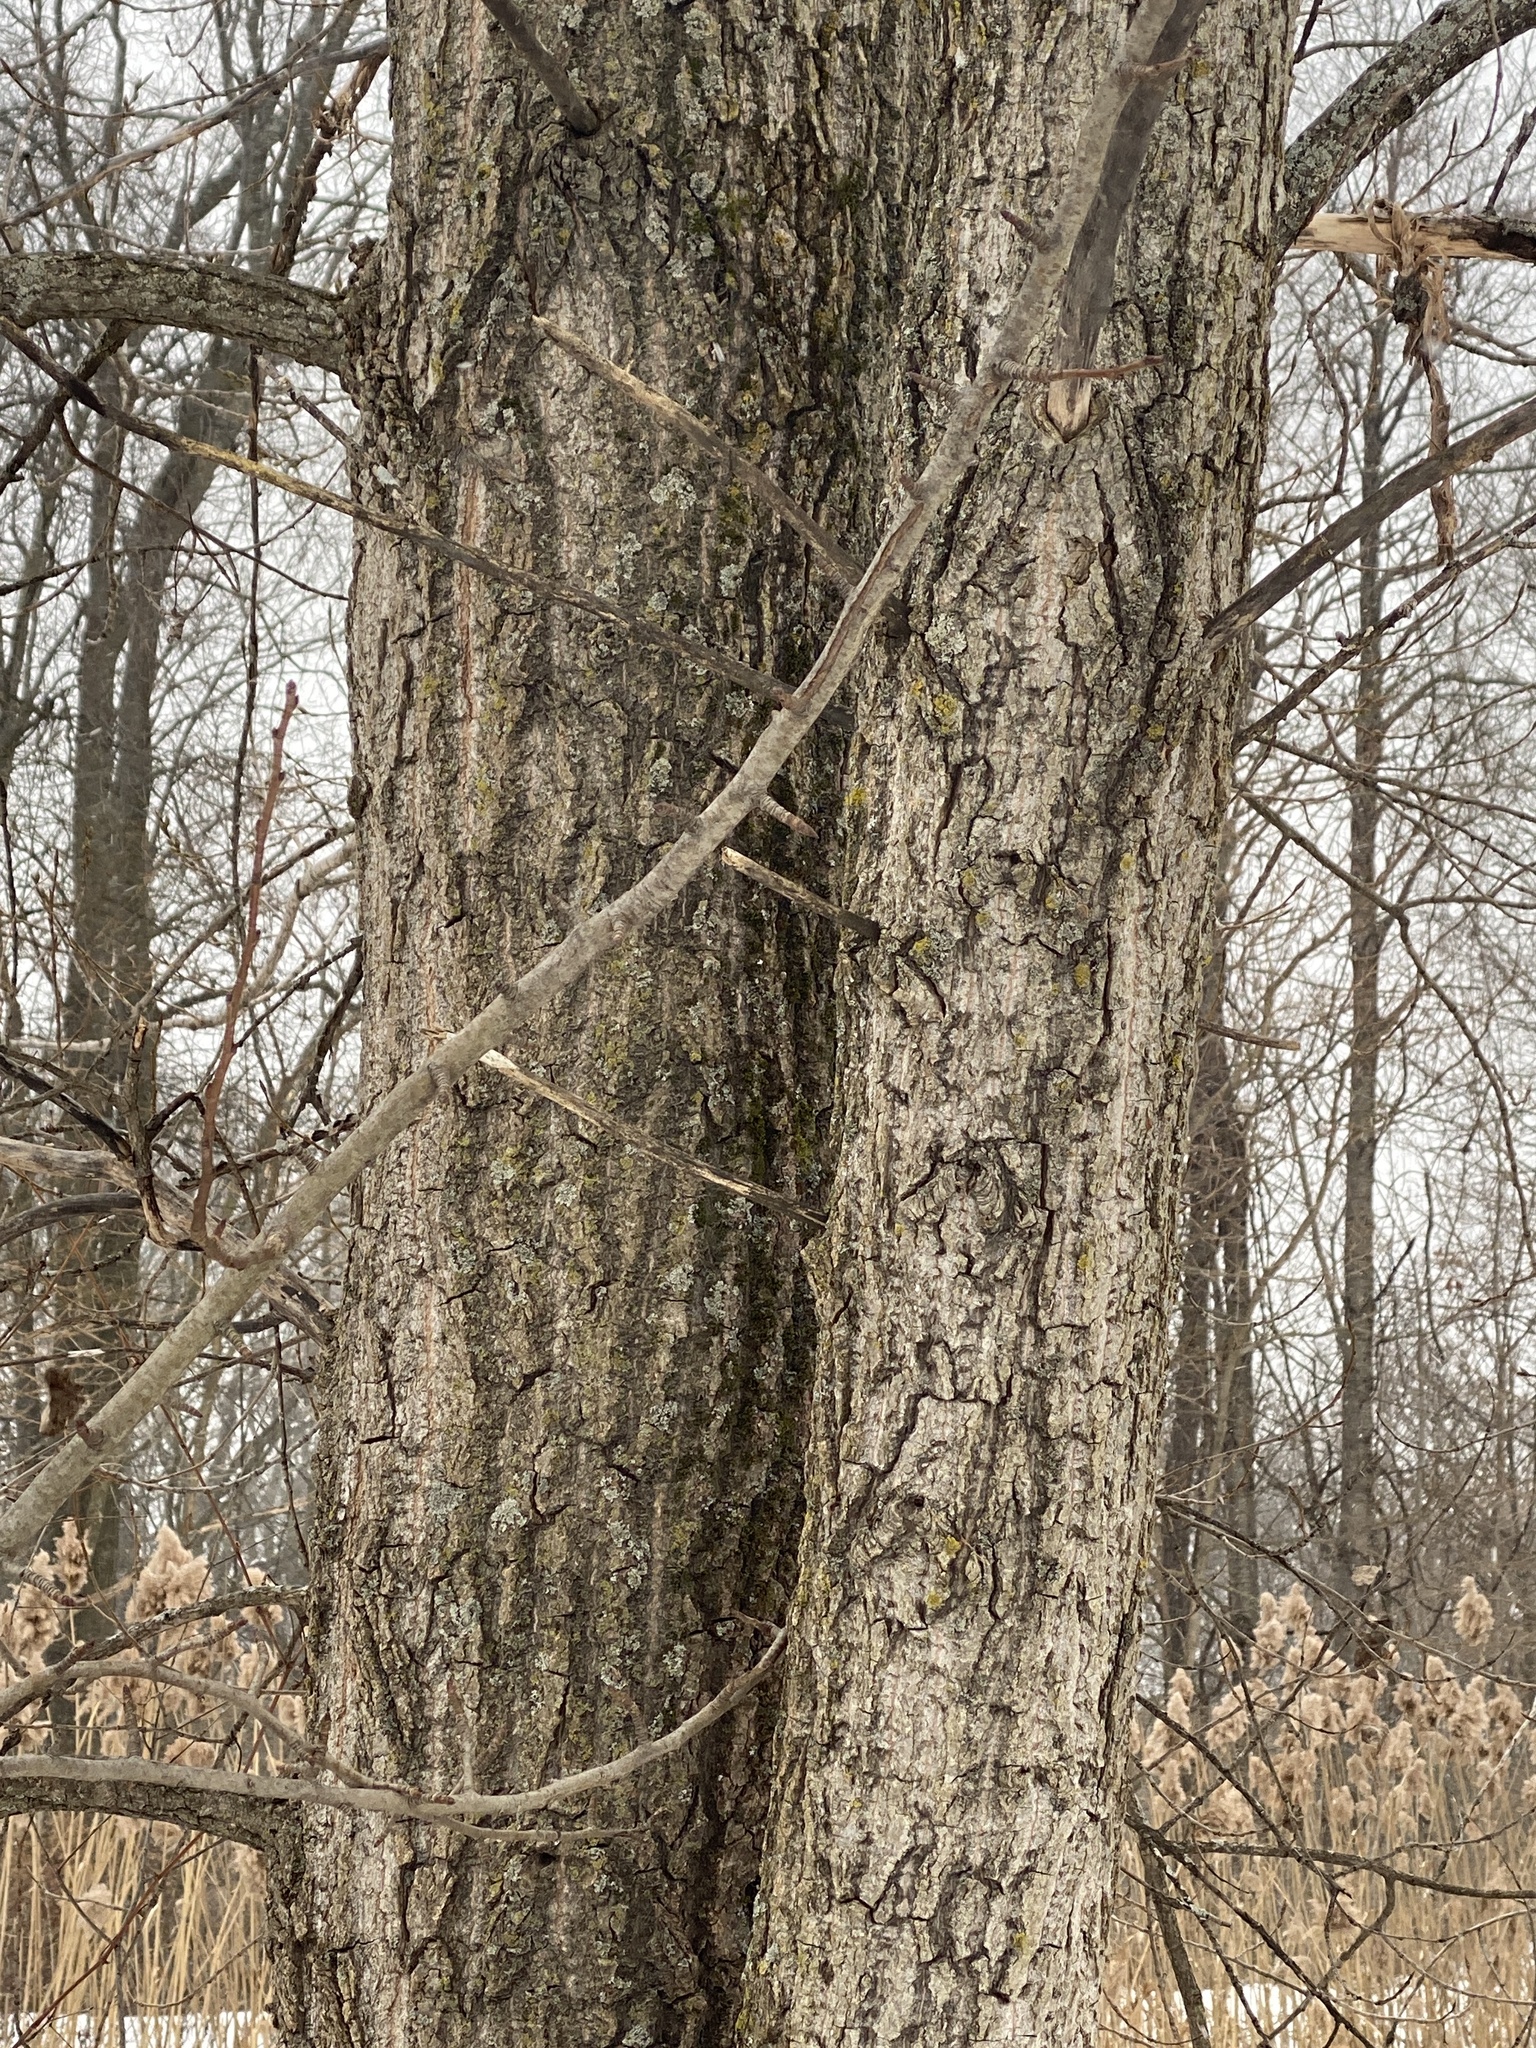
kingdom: Plantae
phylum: Tracheophyta
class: Magnoliopsida
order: Malpighiales
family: Salicaceae
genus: Populus
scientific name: Populus deltoides
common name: Eastern cottonwood
